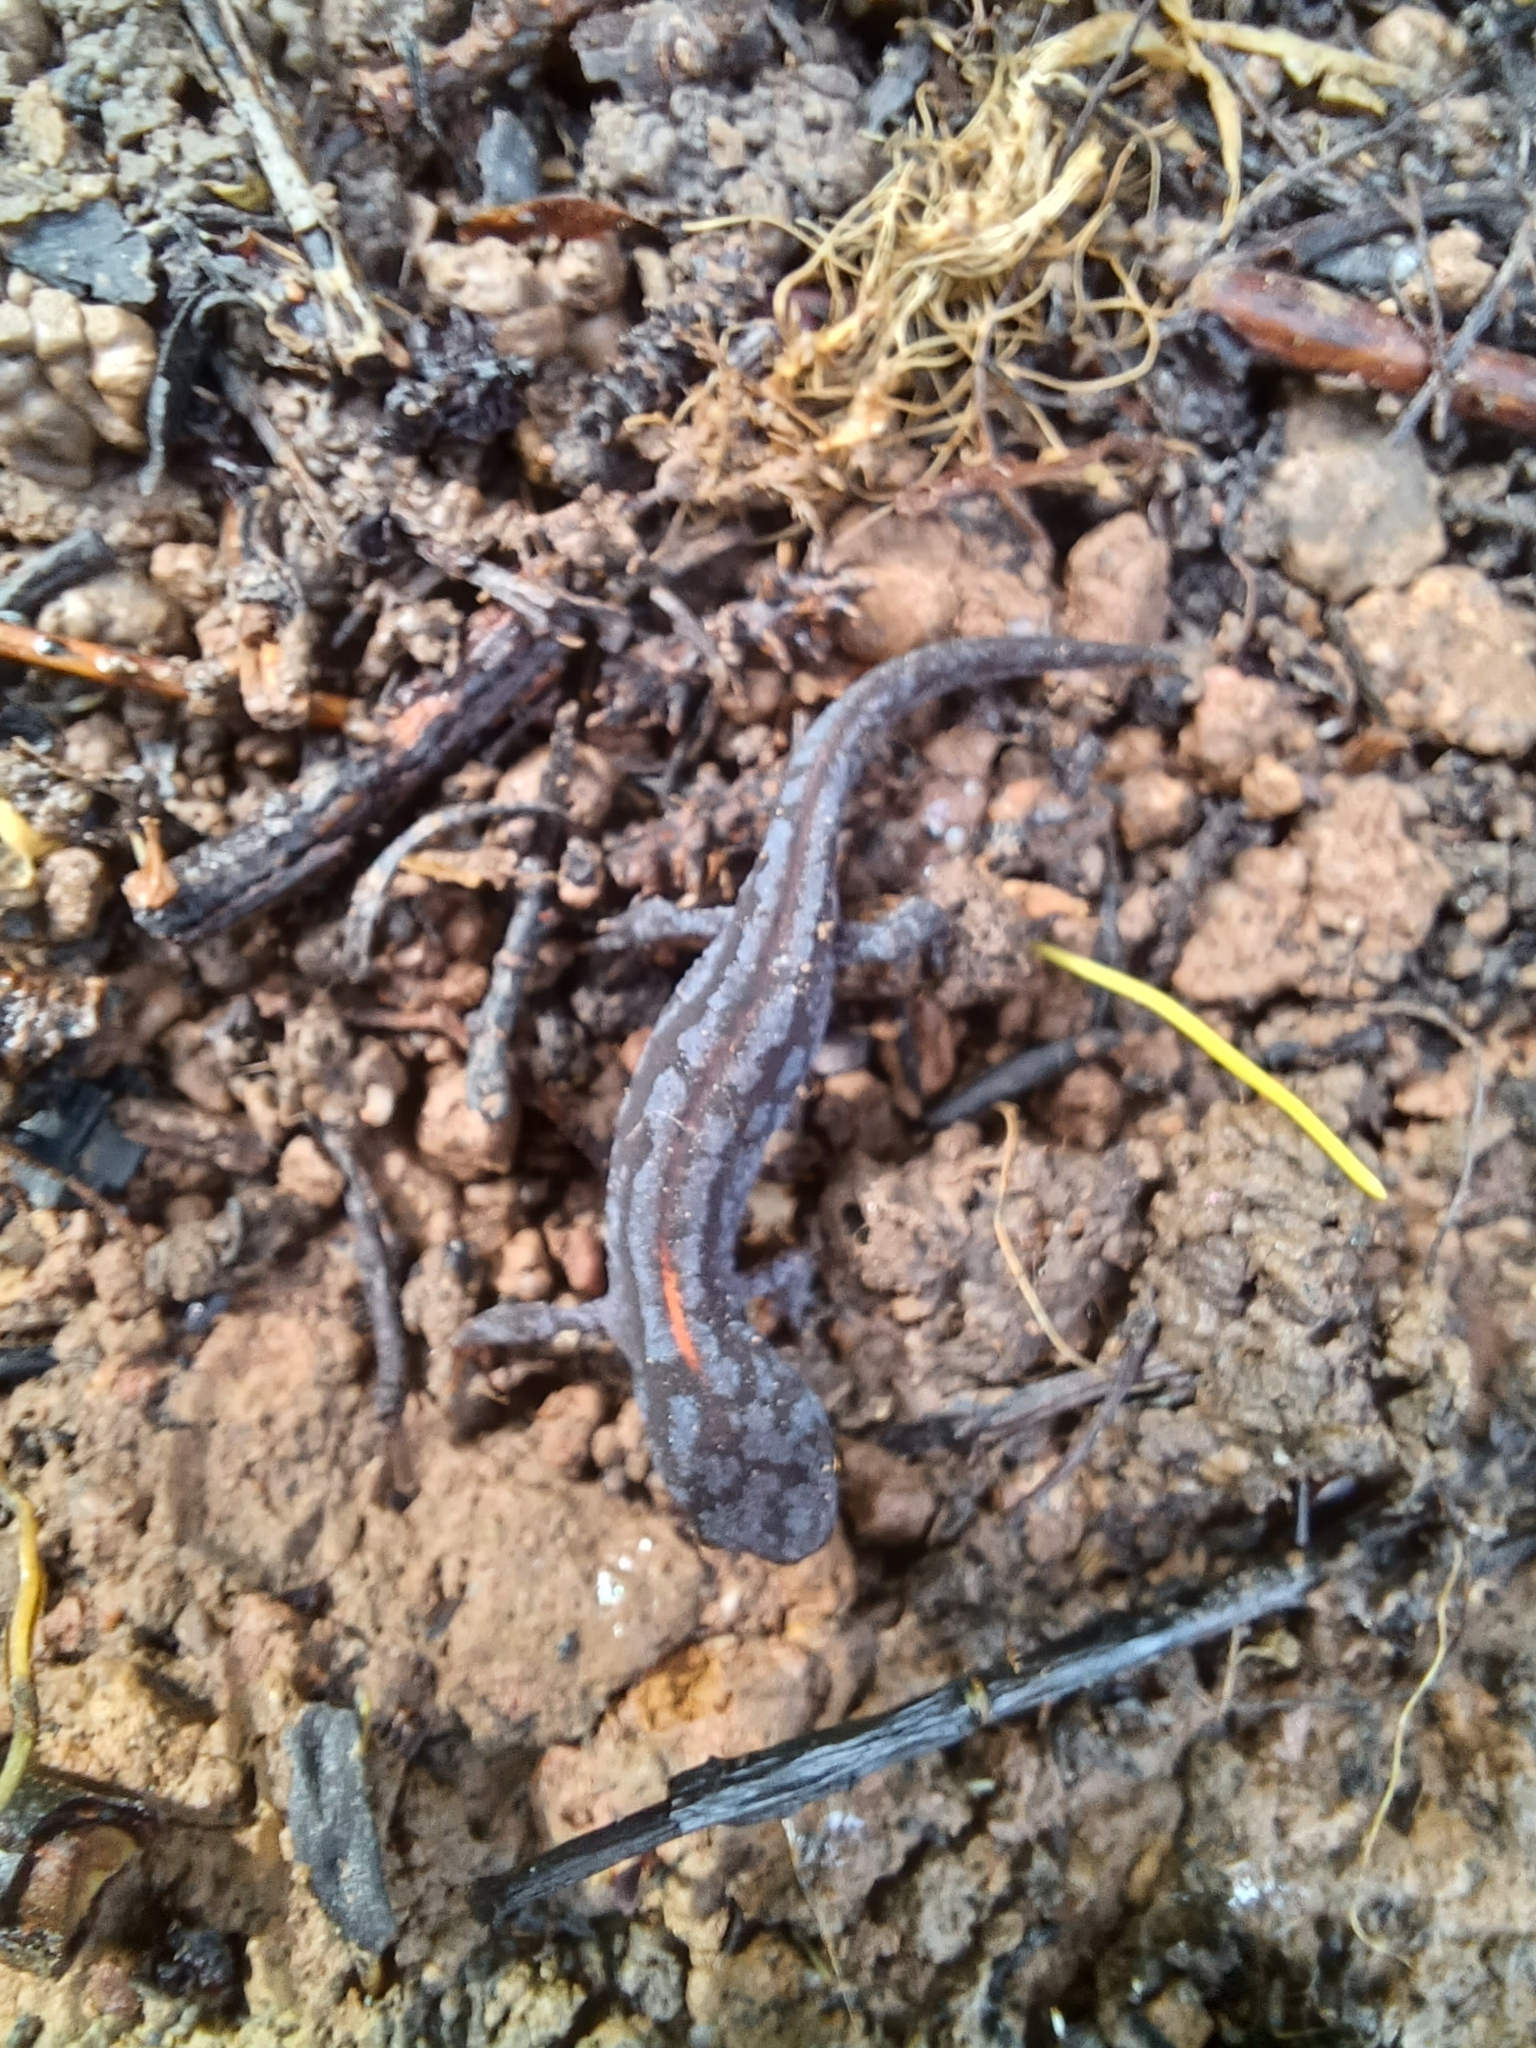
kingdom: Animalia
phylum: Chordata
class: Amphibia
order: Caudata
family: Salamandridae
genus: Ichthyosaura
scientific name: Ichthyosaura alpestris
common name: Alpine newt
